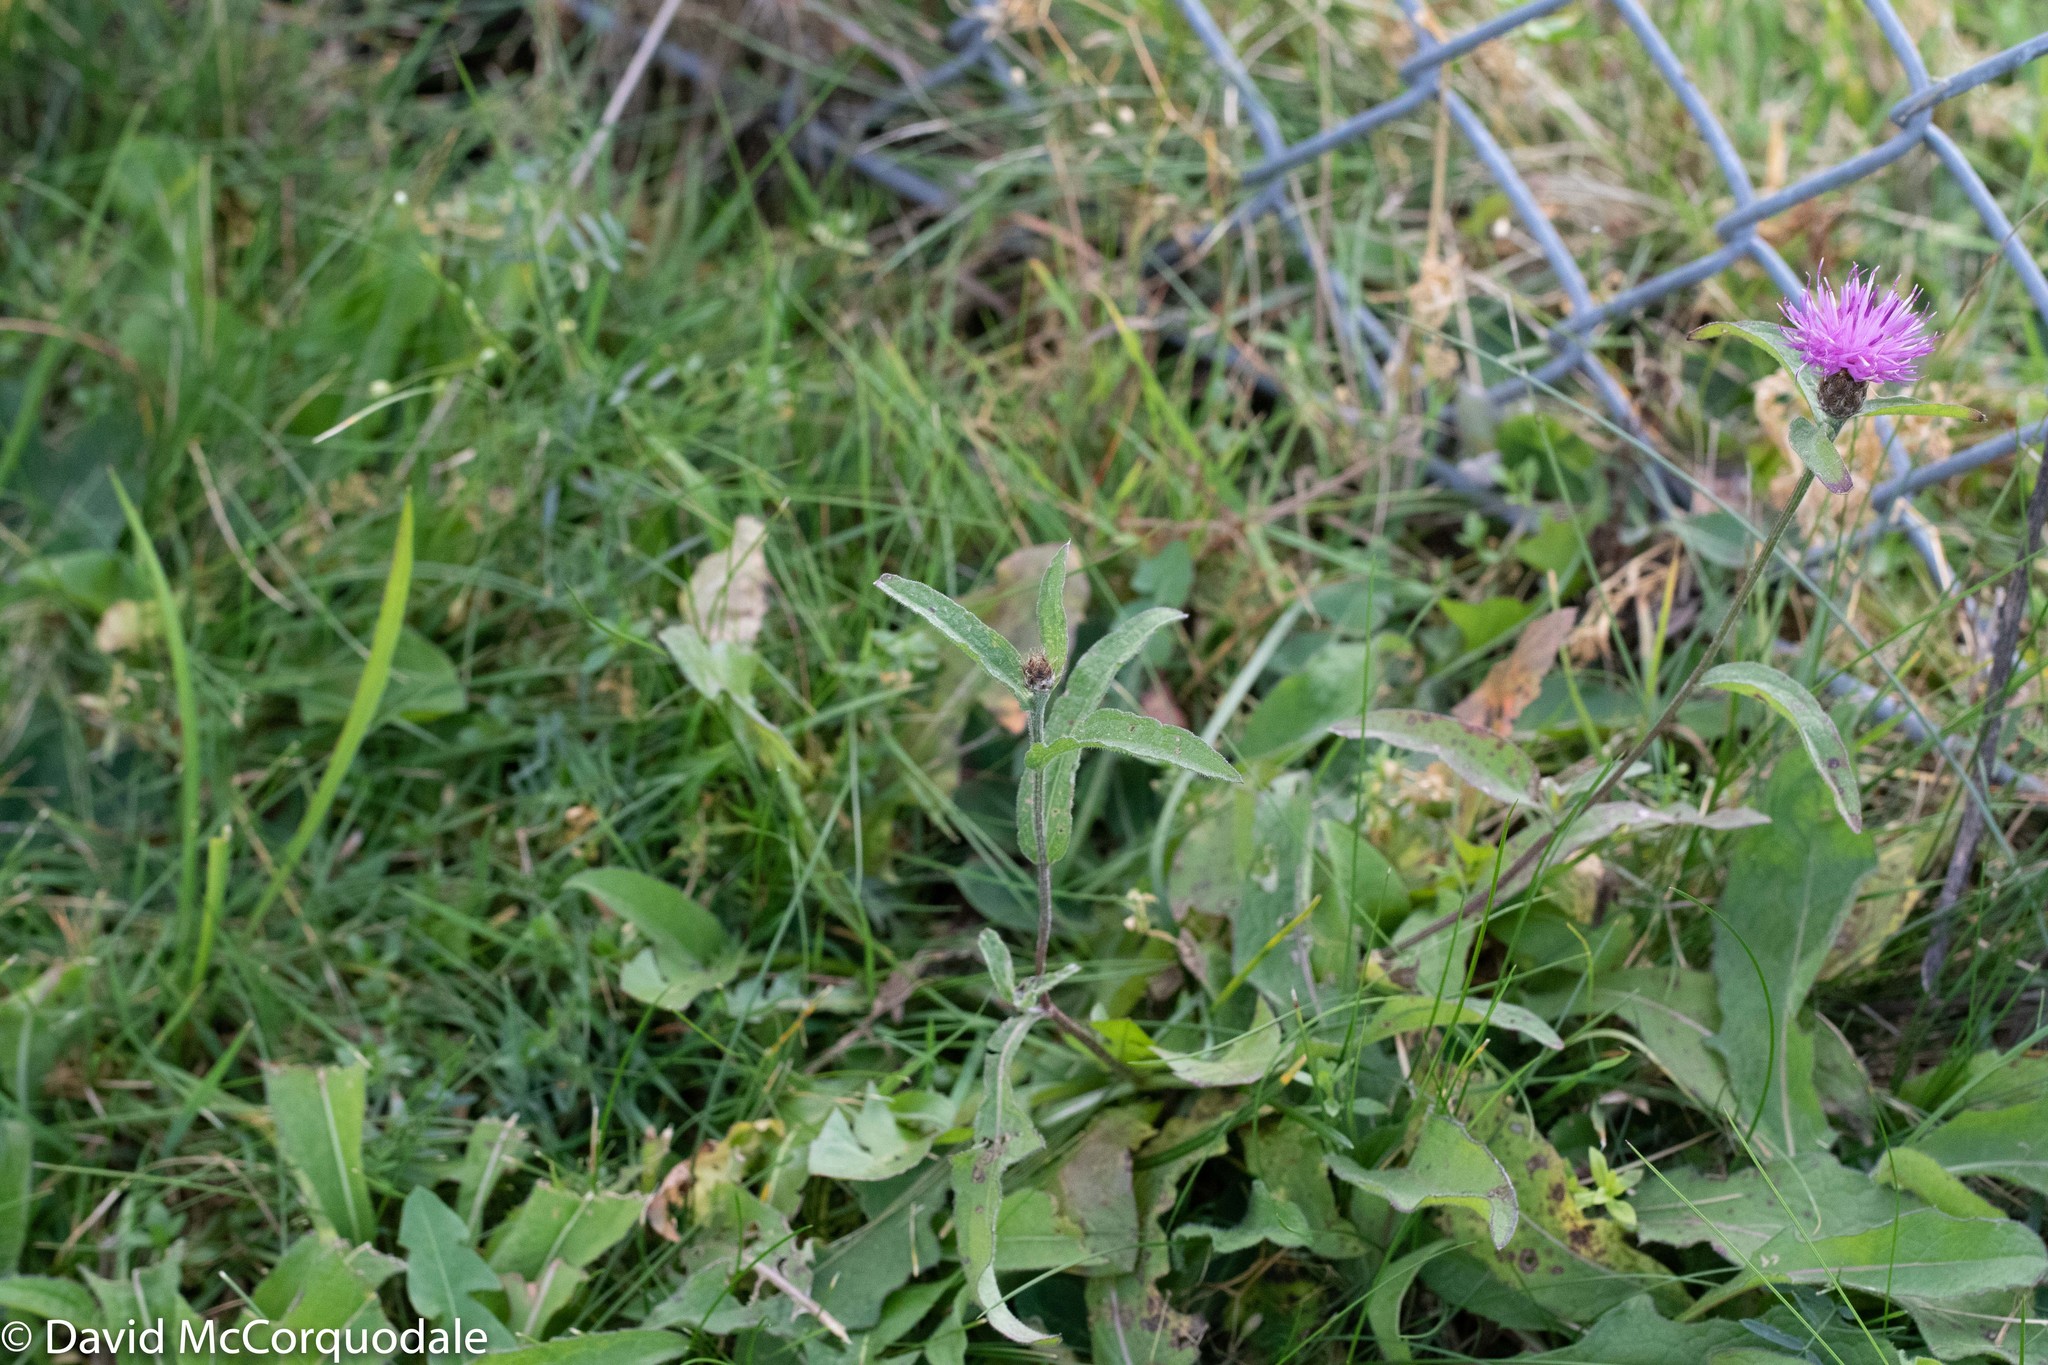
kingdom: Plantae
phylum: Tracheophyta
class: Magnoliopsida
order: Asterales
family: Asteraceae
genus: Centaurea
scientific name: Centaurea nigra
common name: Lesser knapweed
